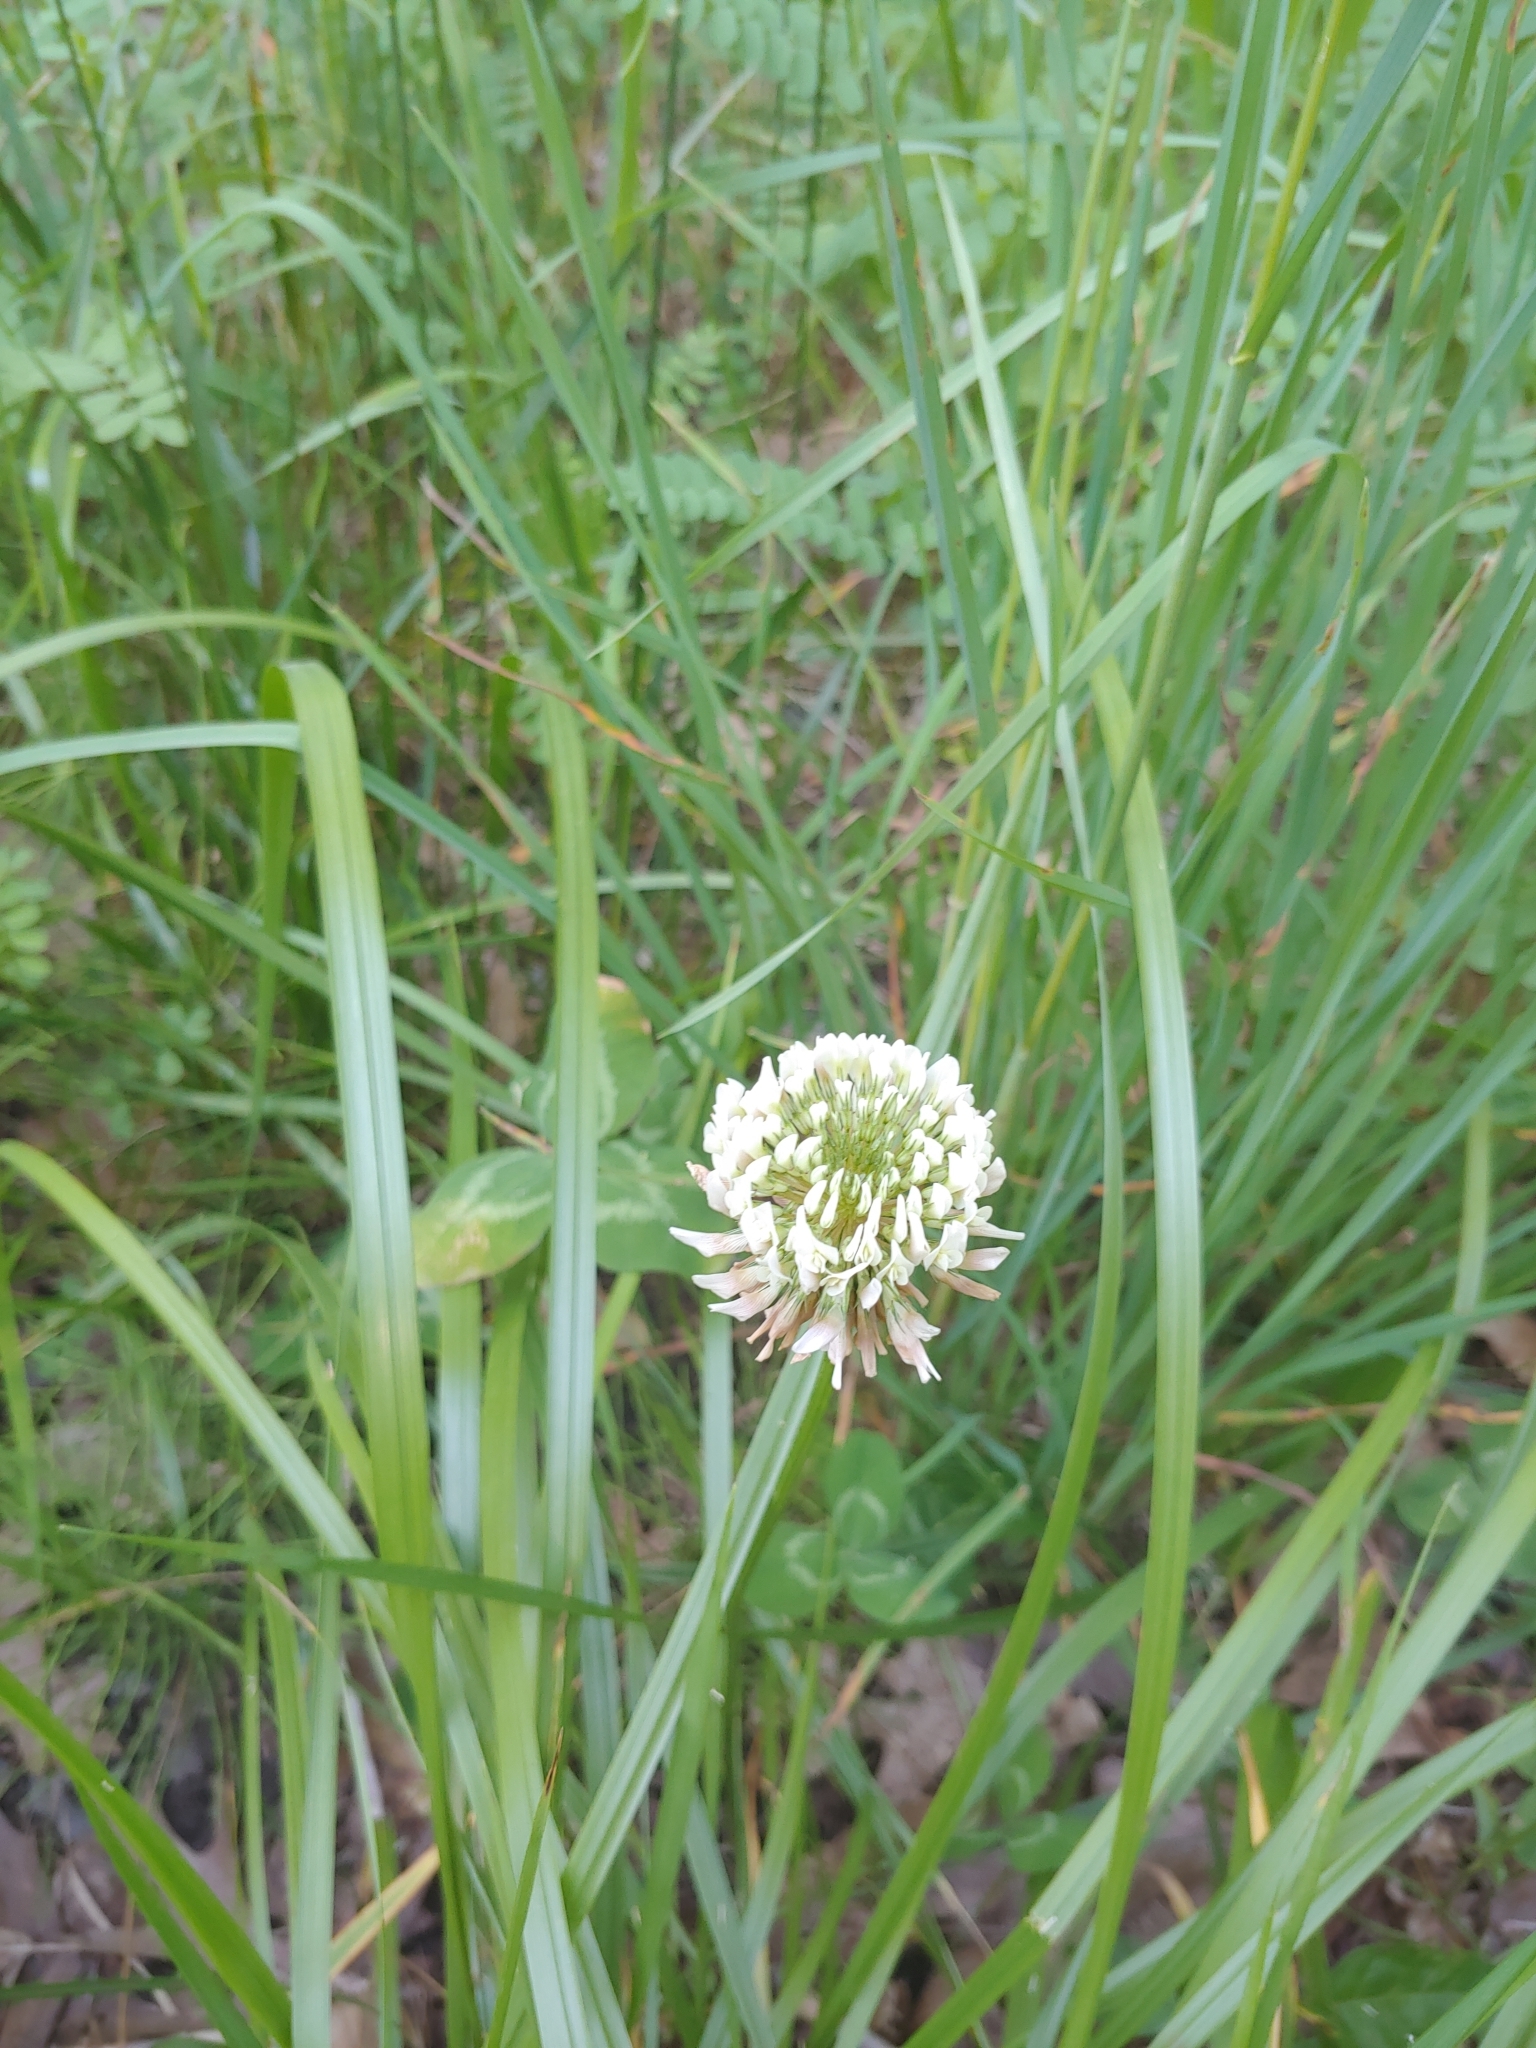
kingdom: Plantae
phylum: Tracheophyta
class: Magnoliopsida
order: Fabales
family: Fabaceae
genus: Trifolium
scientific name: Trifolium repens
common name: White clover
